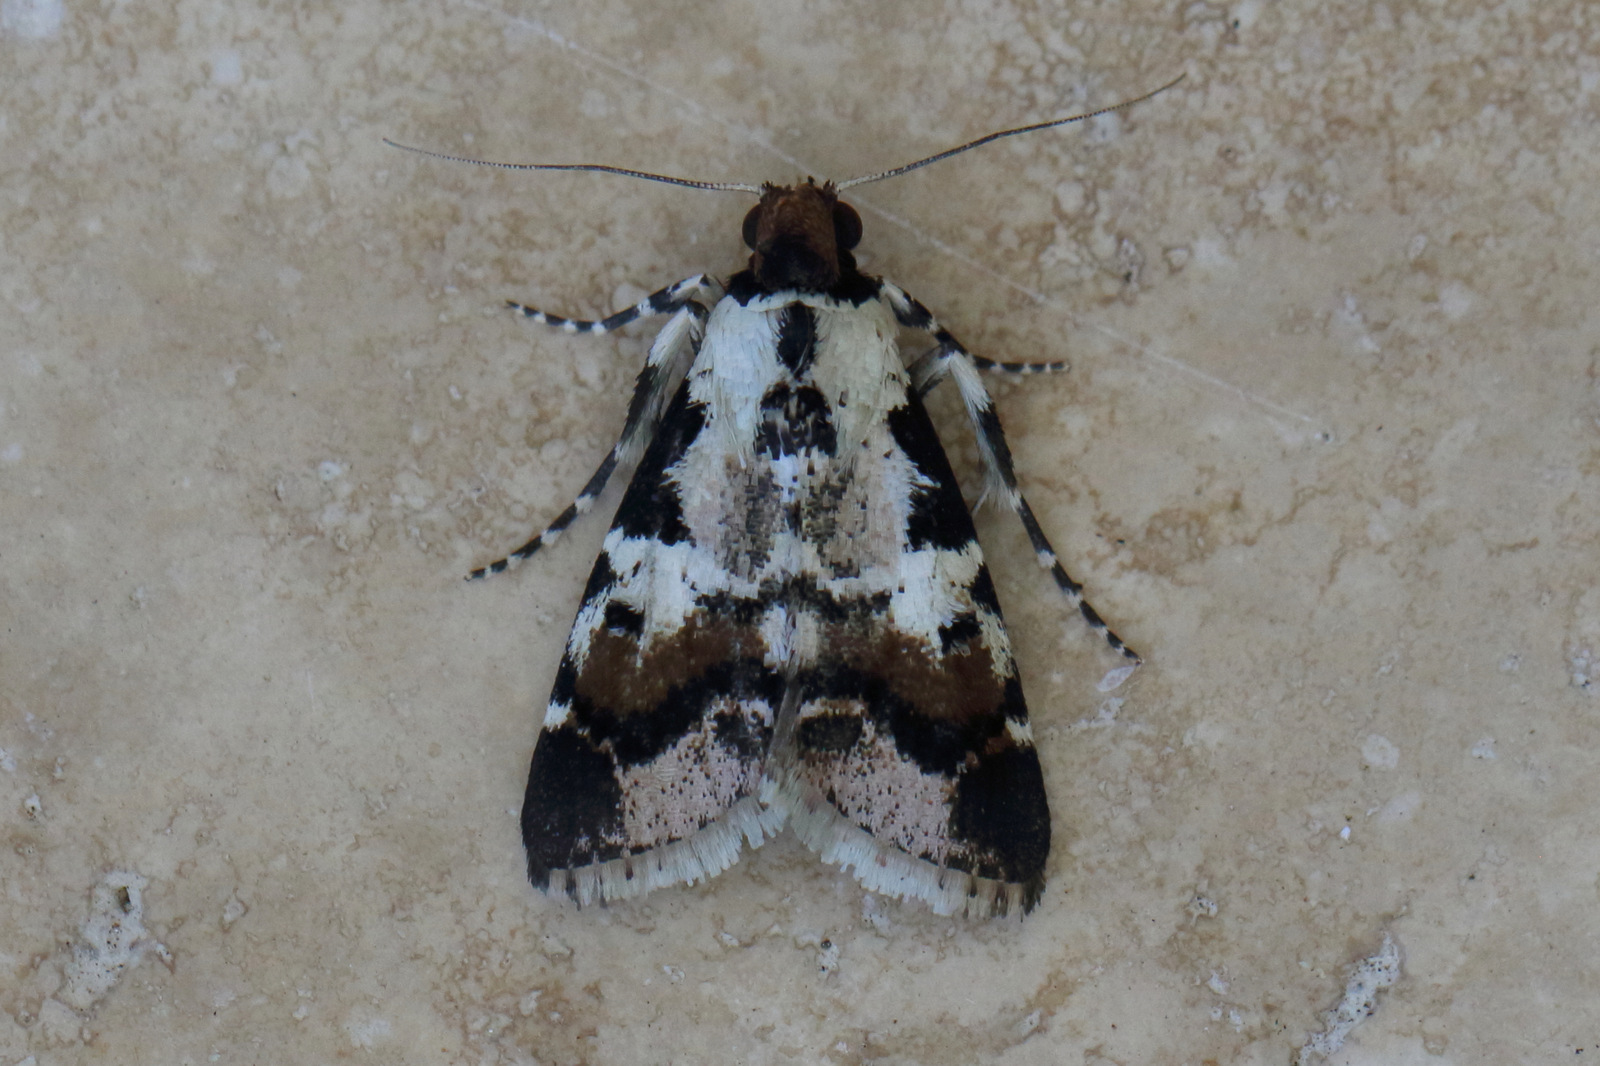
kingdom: Animalia
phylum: Arthropoda
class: Insecta
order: Lepidoptera
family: Pyralidae
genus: Orthaga
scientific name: Orthaga seminivea
